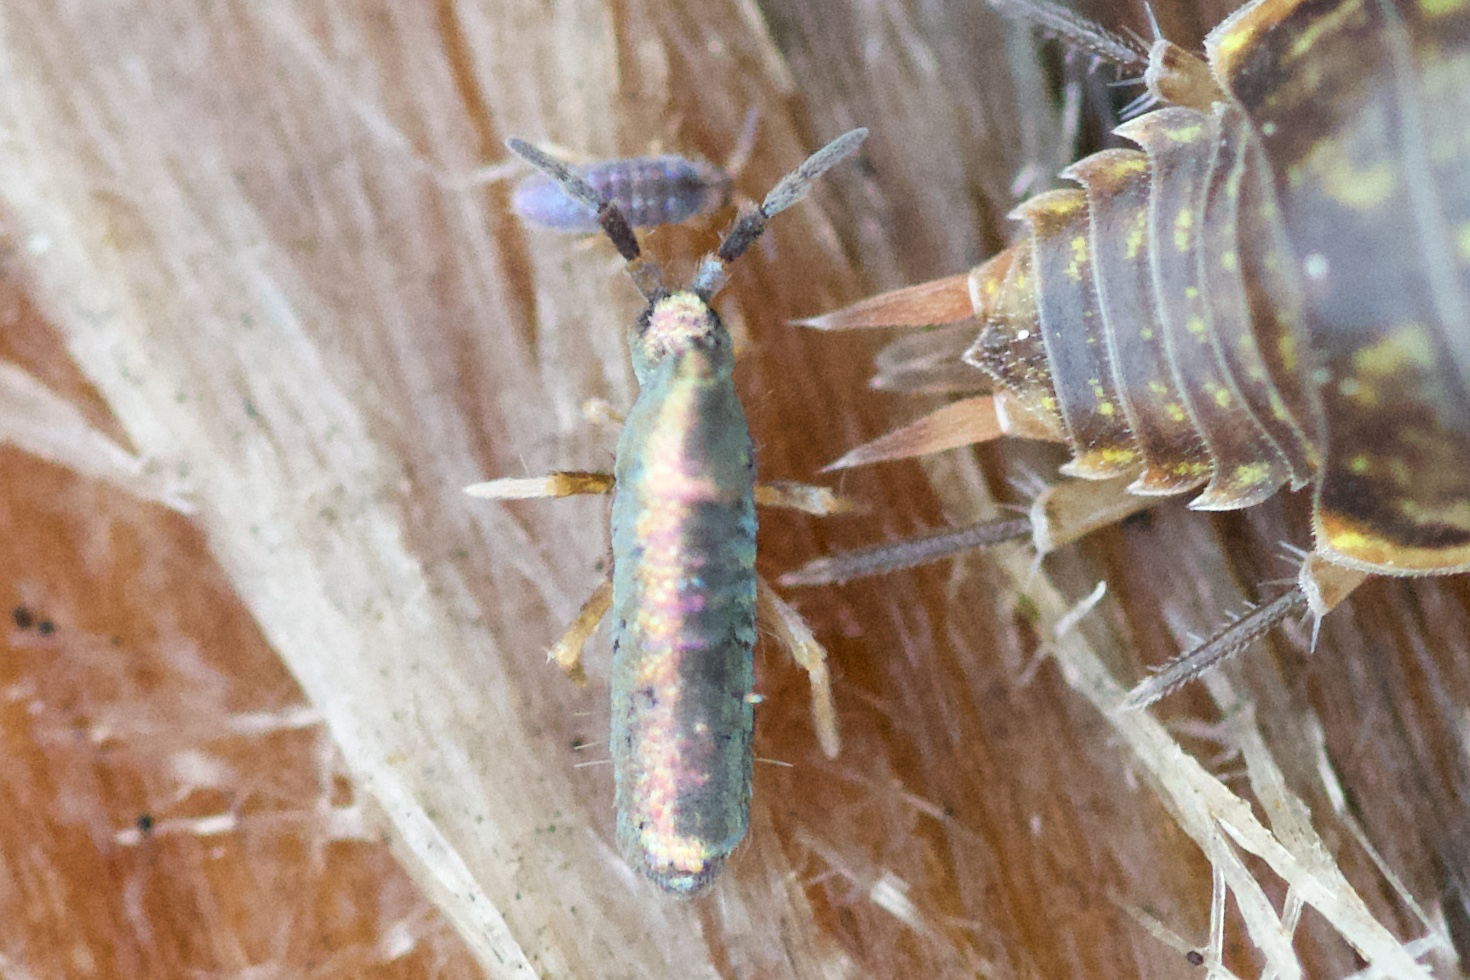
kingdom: Animalia
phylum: Arthropoda
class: Collembola
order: Entomobryomorpha
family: Entomobryidae
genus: Lepidocyrtus
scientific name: Lepidocyrtus paradoxus
